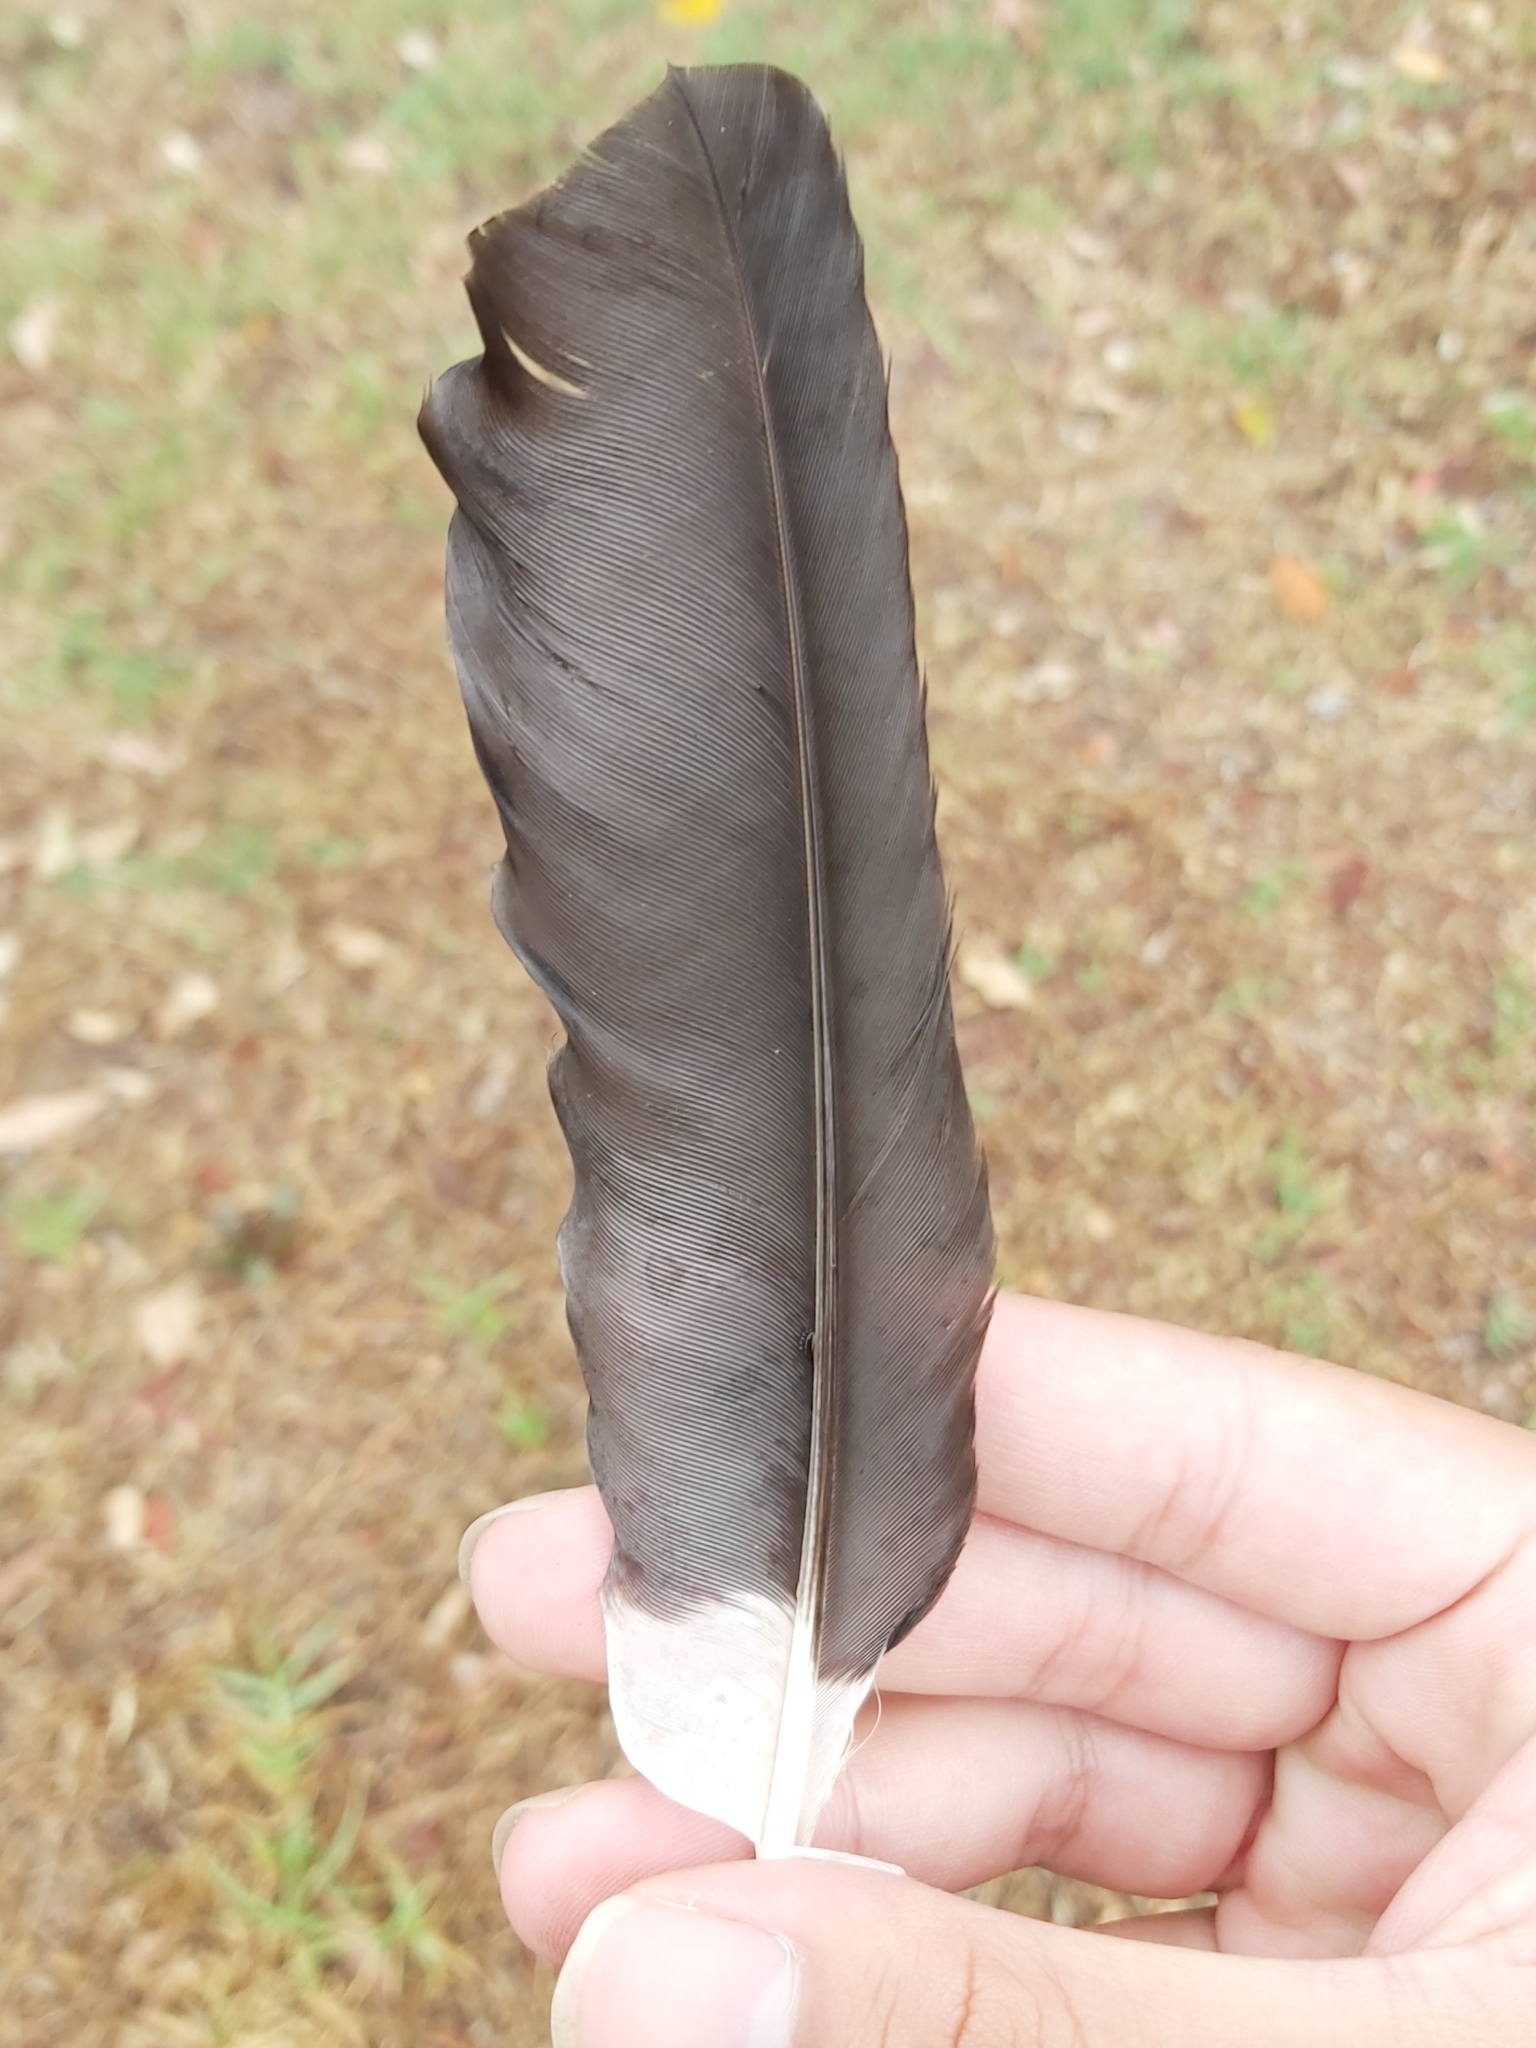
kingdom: Animalia
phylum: Chordata
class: Aves
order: Passeriformes
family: Cracticidae
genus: Strepera
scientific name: Strepera graculina
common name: Pied currawong
